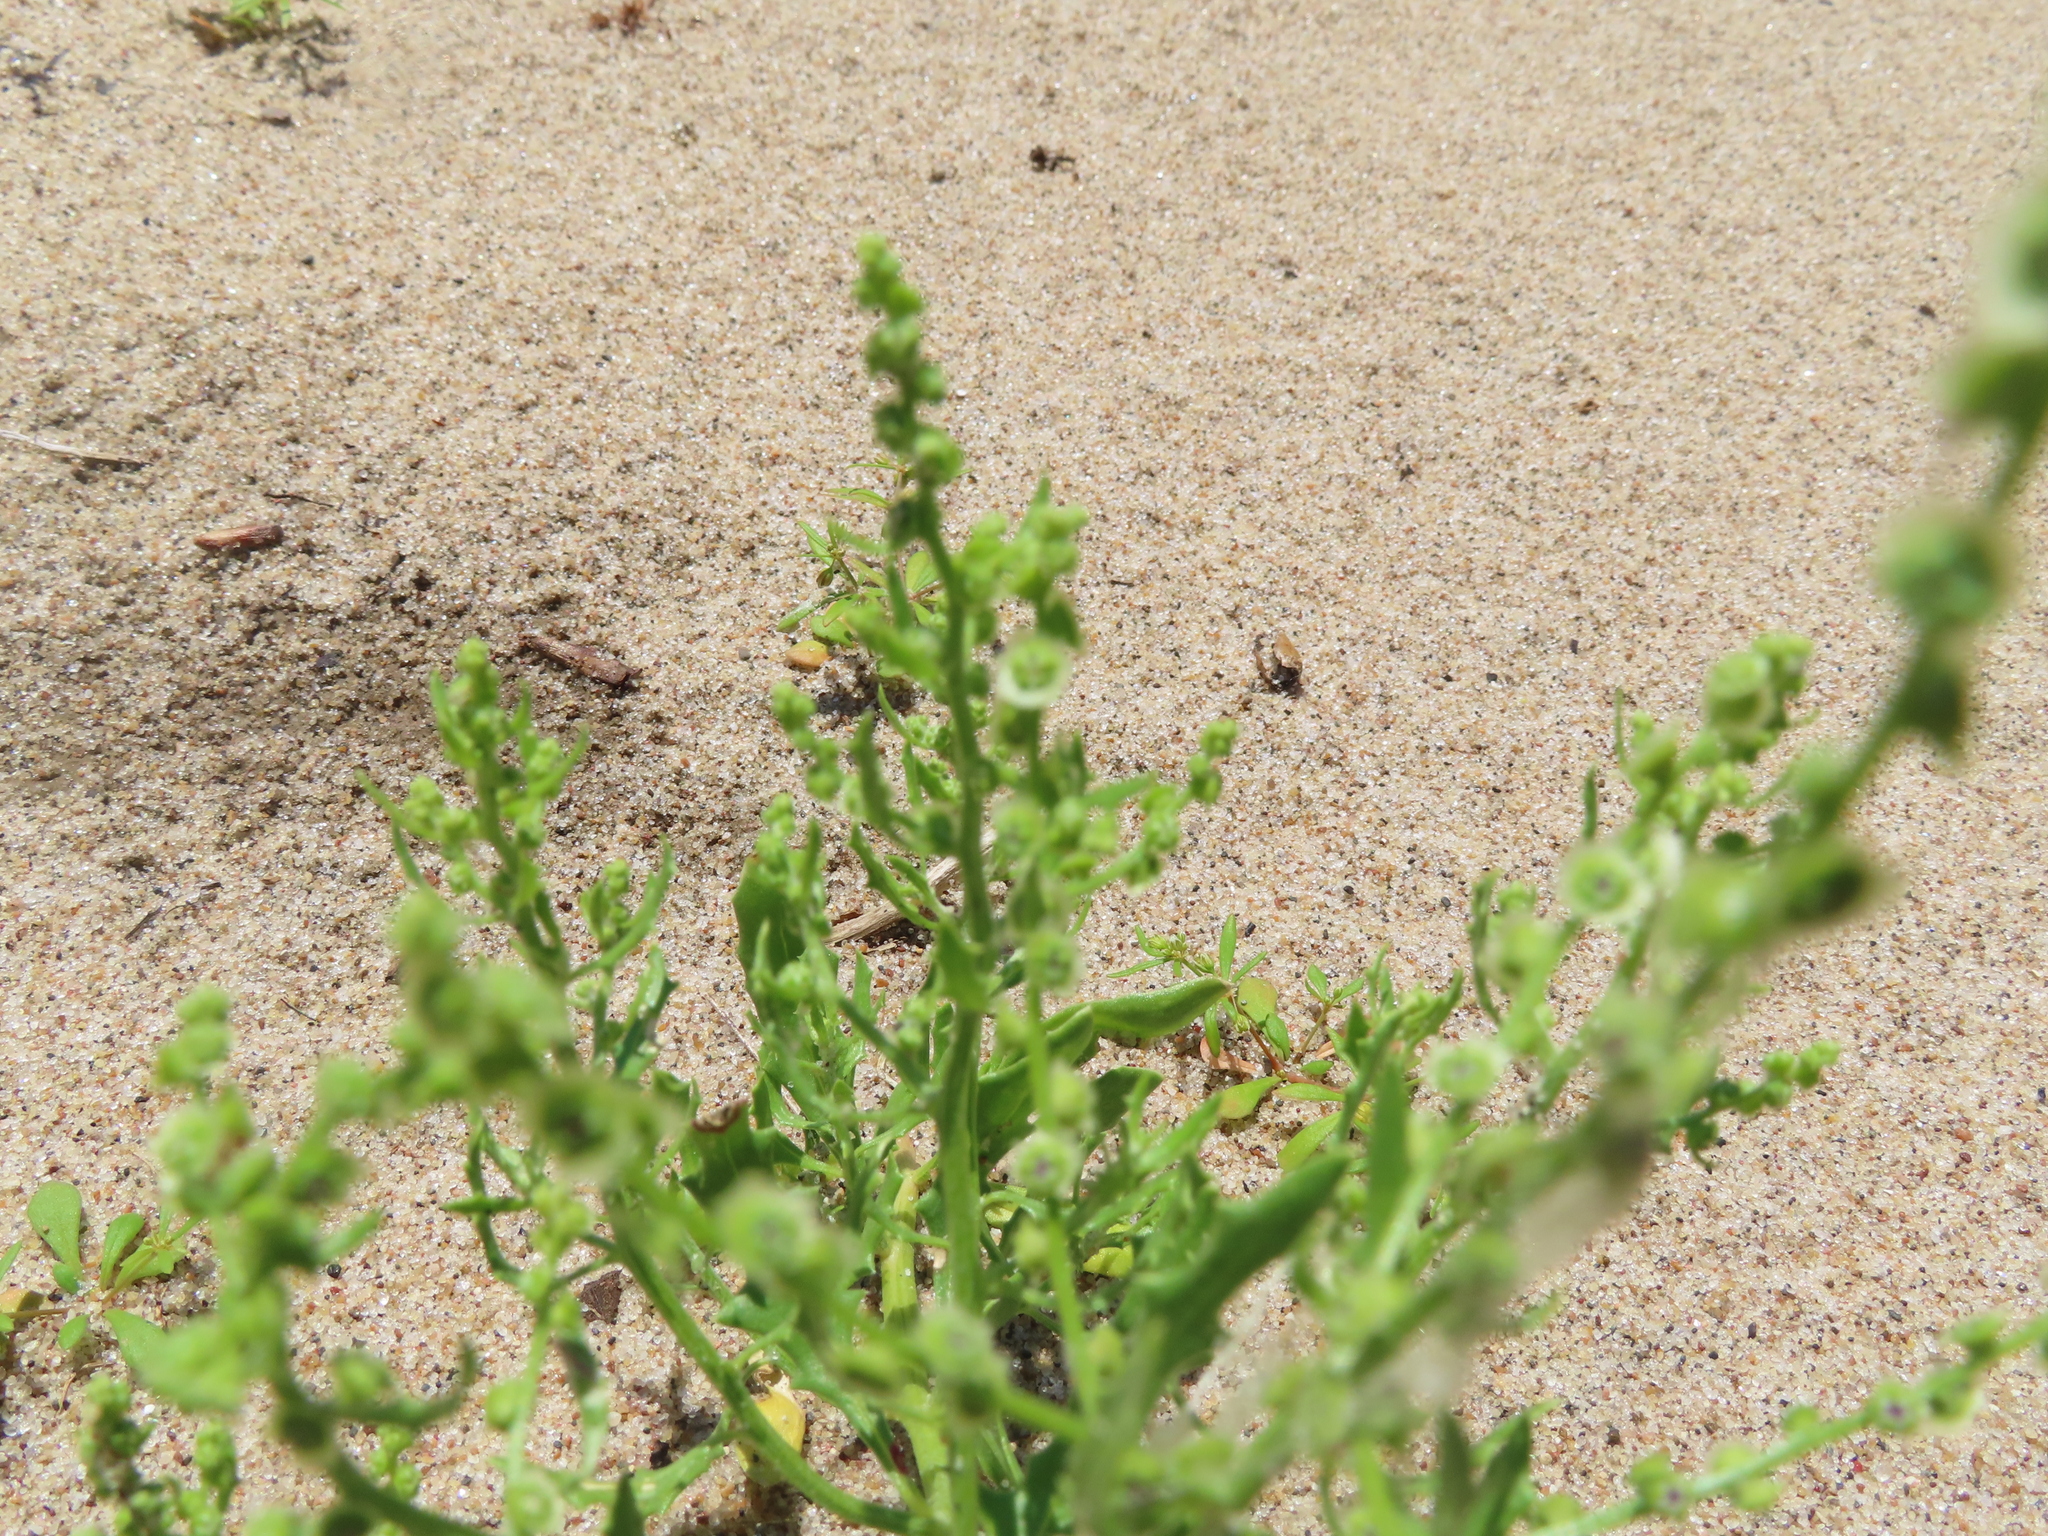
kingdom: Plantae
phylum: Tracheophyta
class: Magnoliopsida
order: Caryophyllales
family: Amaranthaceae
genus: Dysphania
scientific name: Dysphania atriplicifolia
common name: Plains tumbleweed
